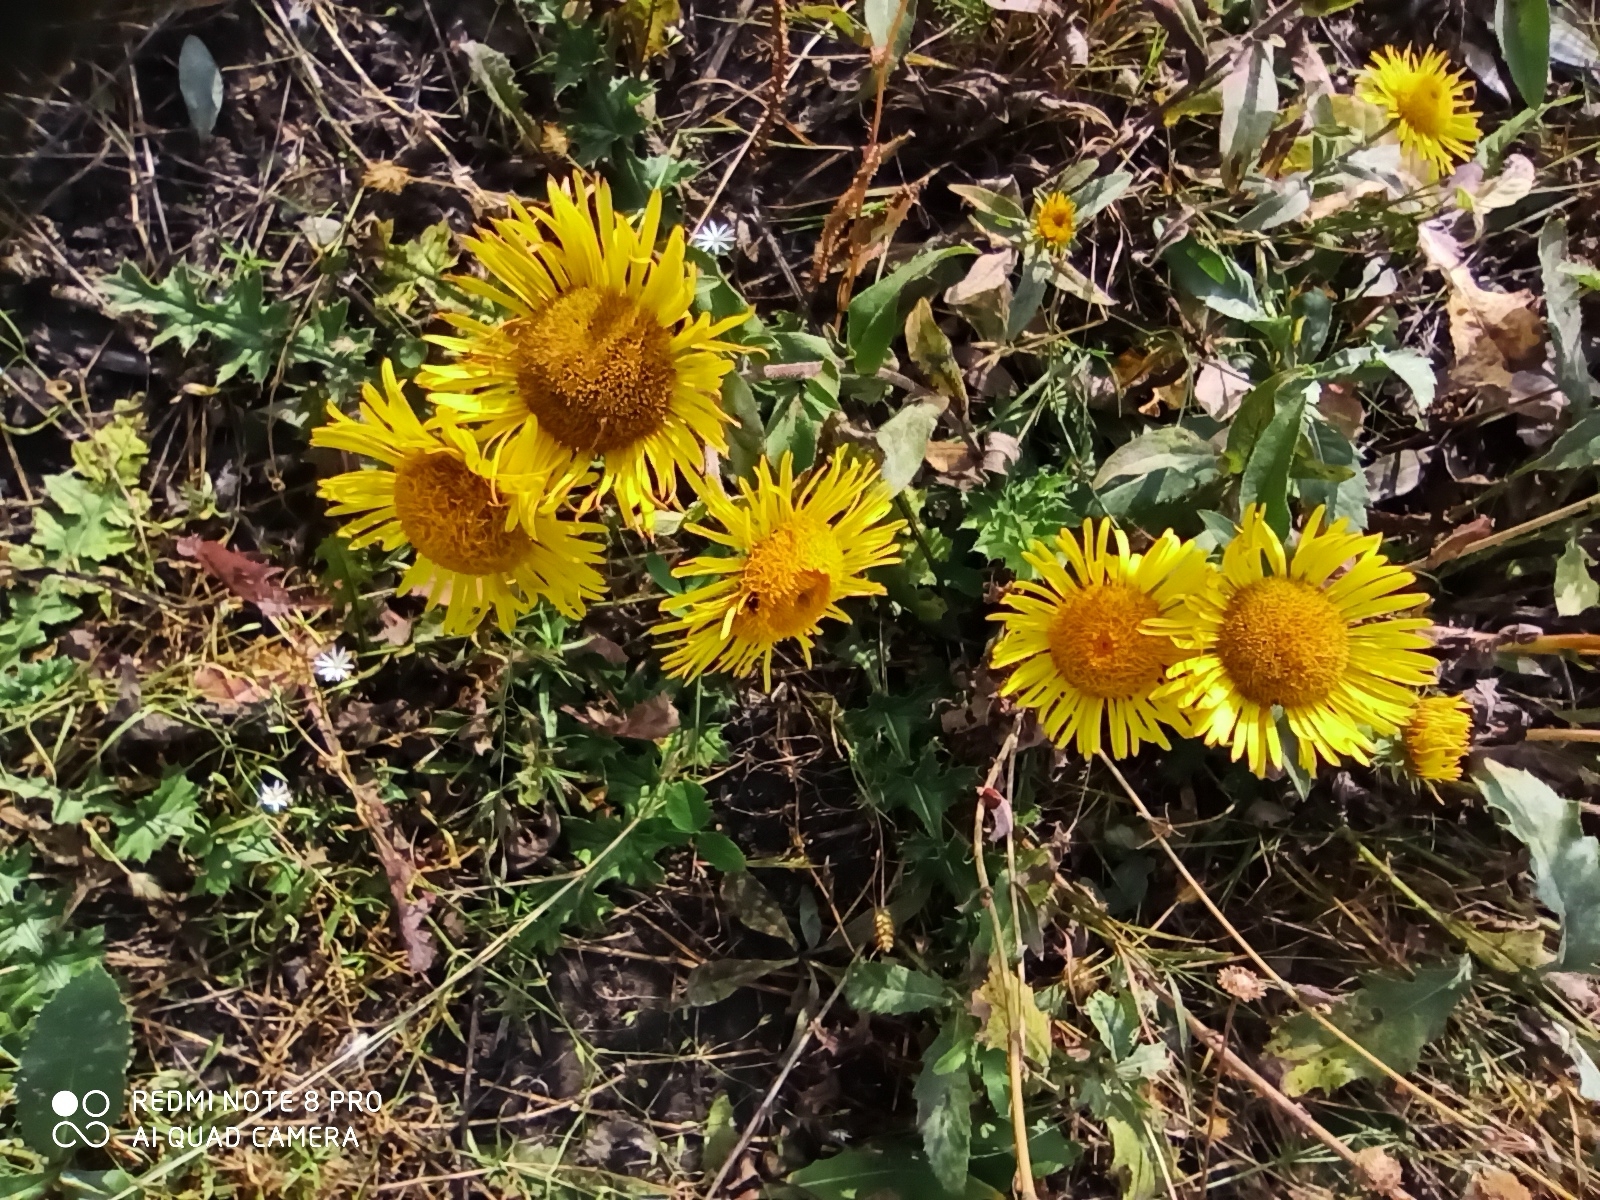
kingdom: Plantae
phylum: Tracheophyta
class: Magnoliopsida
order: Asterales
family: Asteraceae
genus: Pentanema
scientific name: Pentanema britannicum
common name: British elecampane
